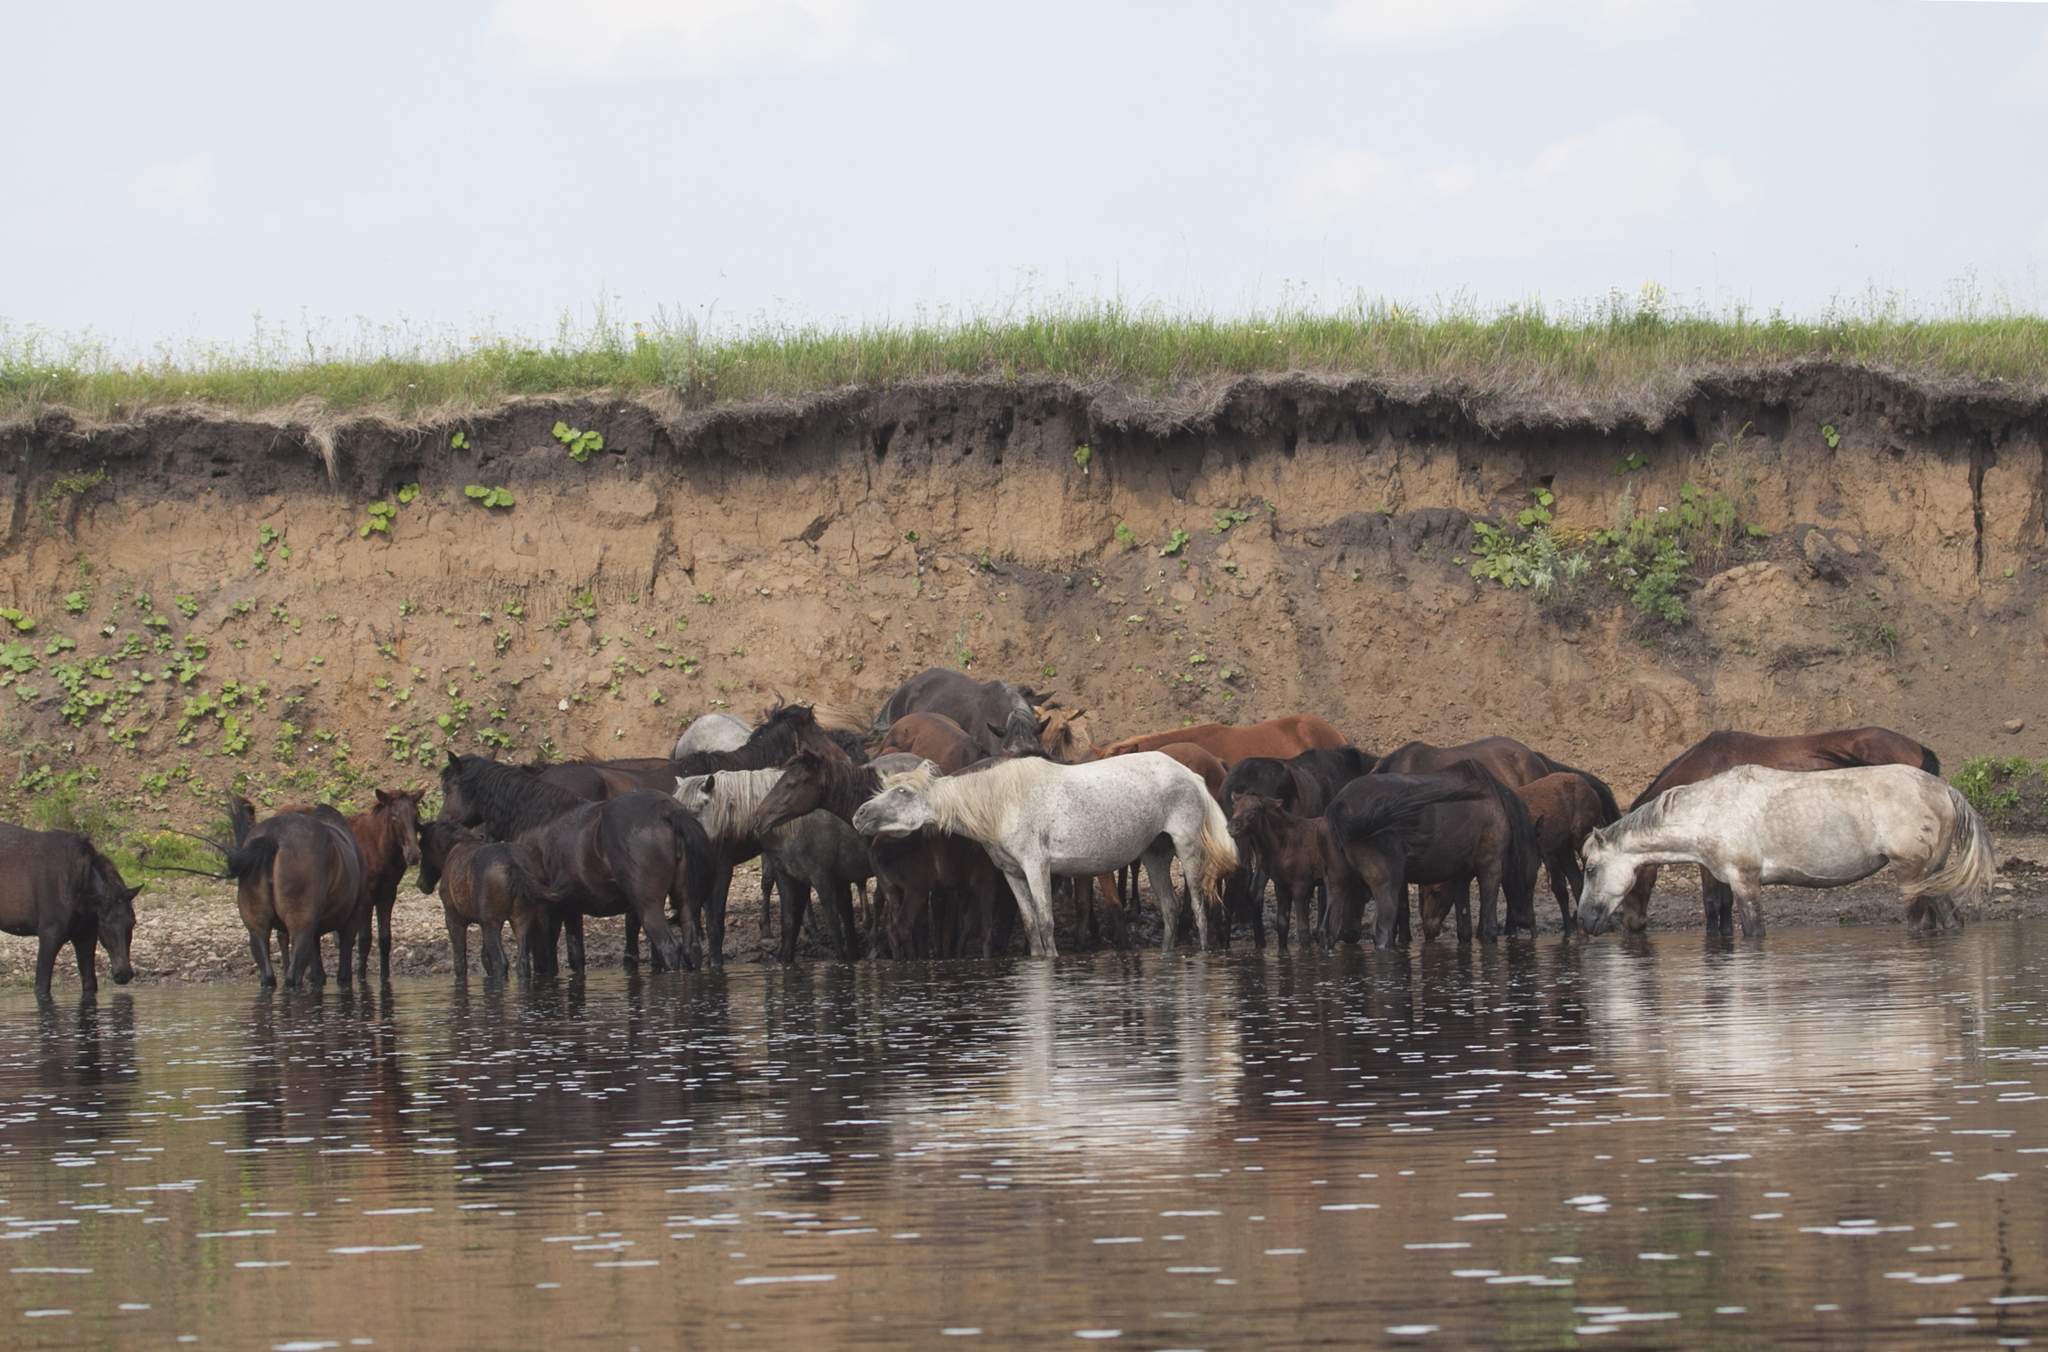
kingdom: Animalia
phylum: Chordata
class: Mammalia
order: Perissodactyla
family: Equidae
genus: Equus
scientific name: Equus caballus
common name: Horse
